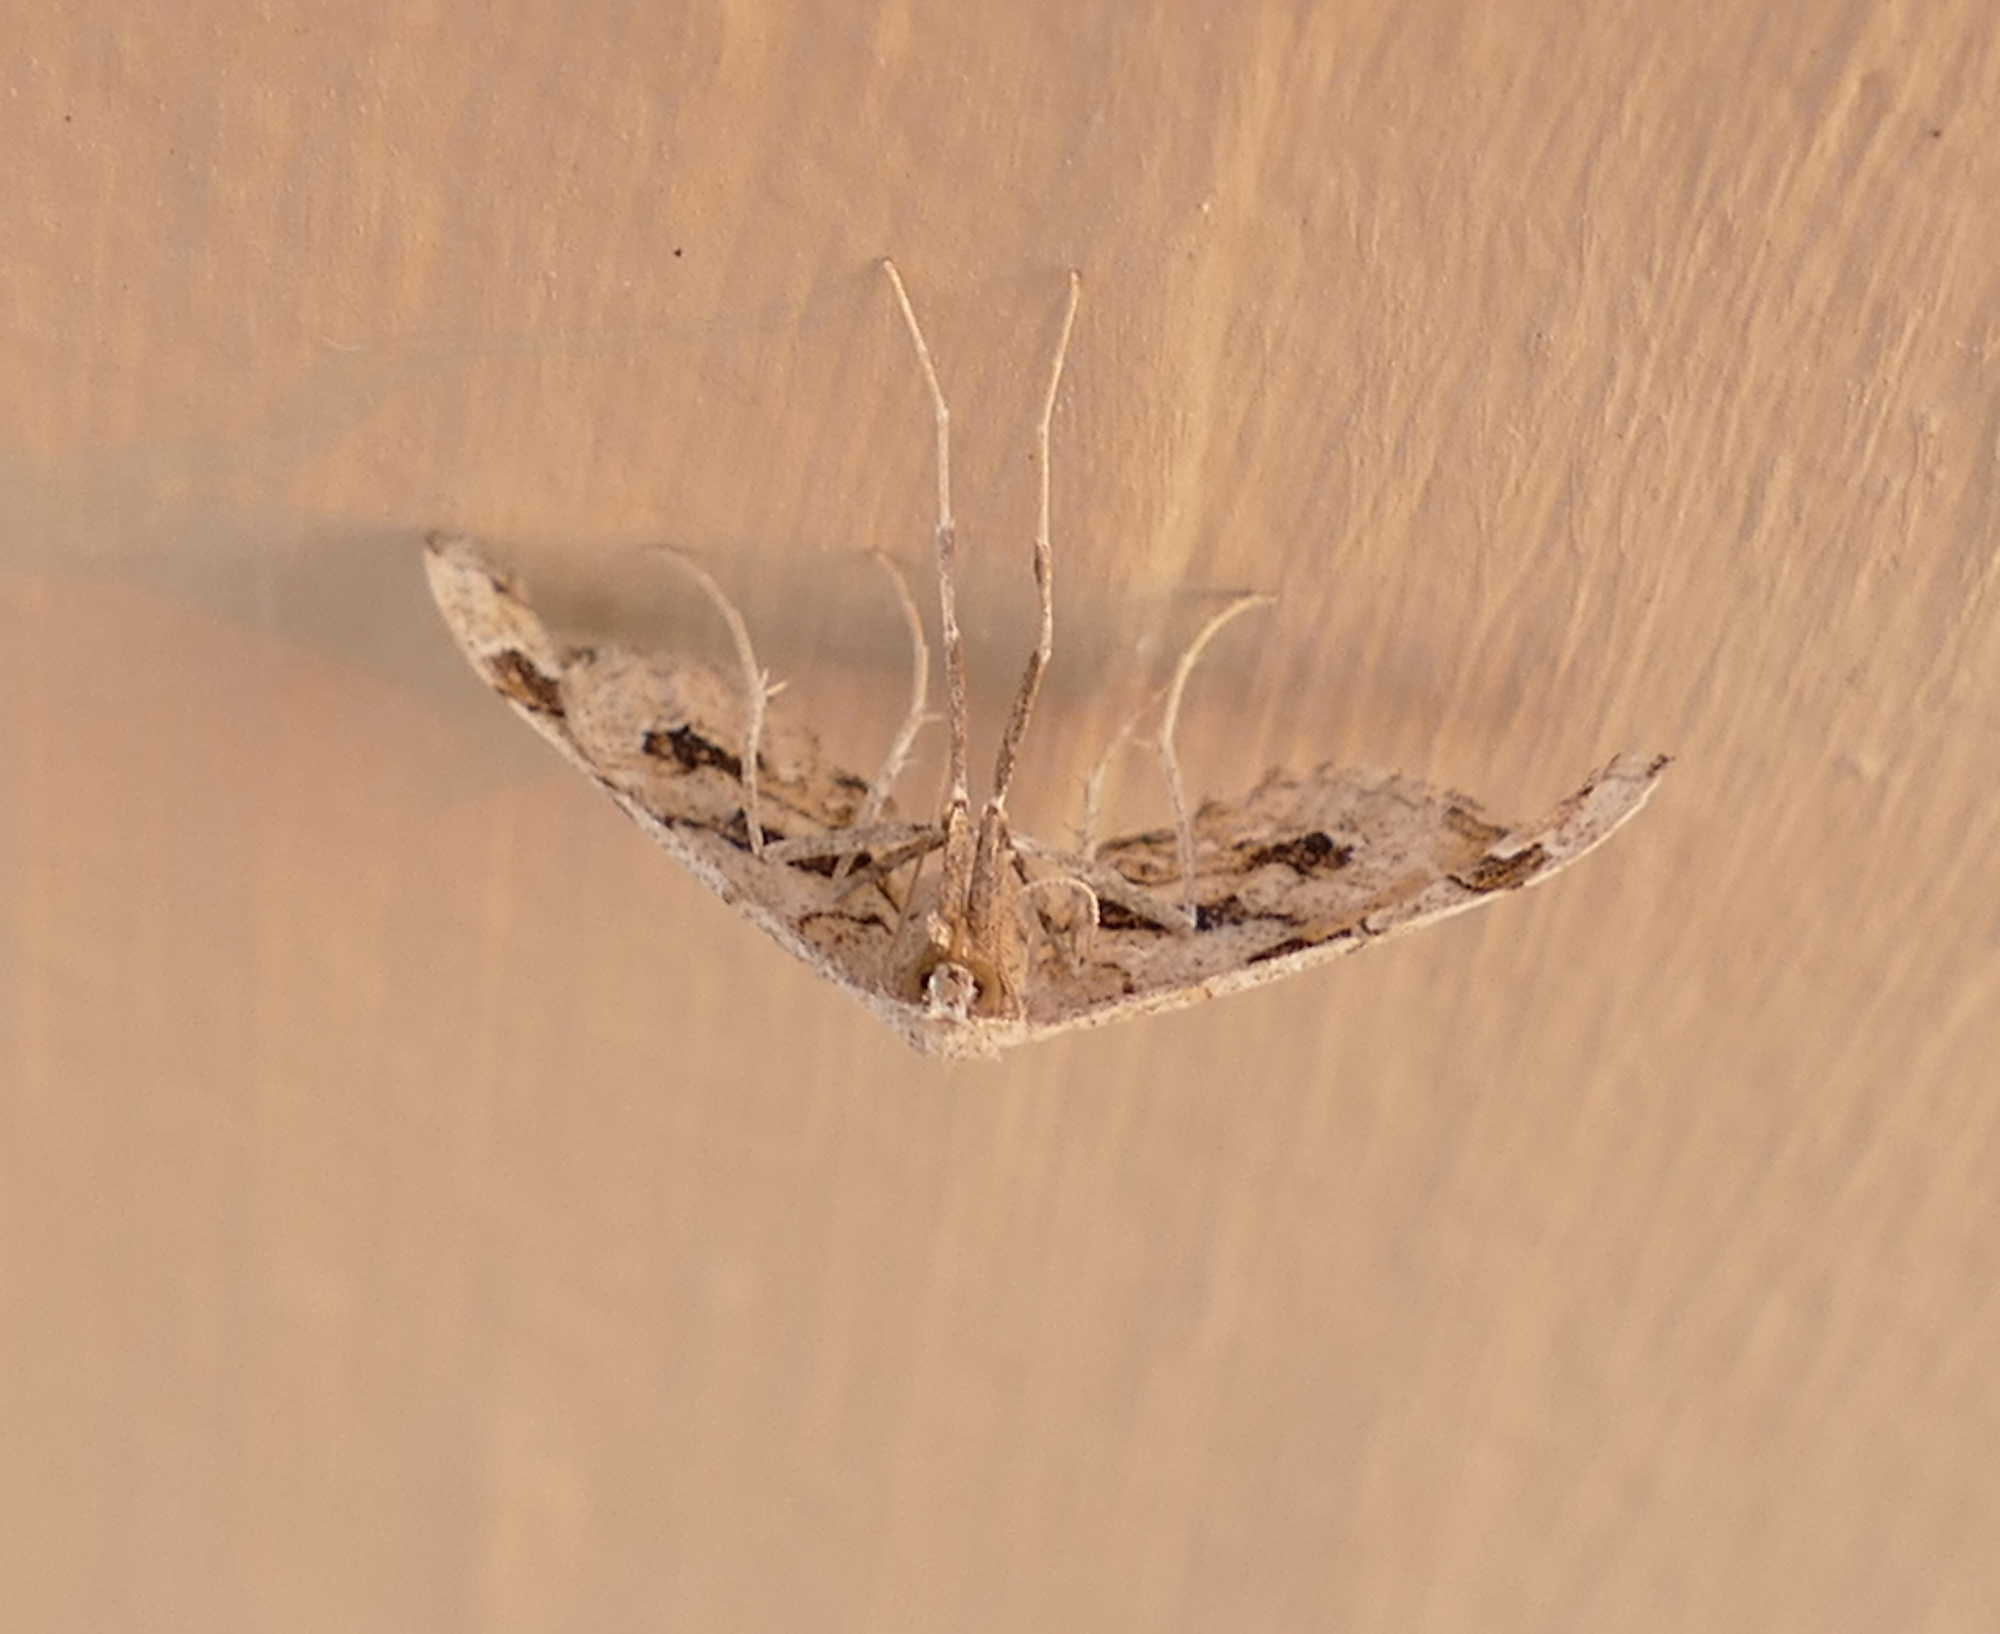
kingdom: Animalia
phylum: Arthropoda
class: Insecta
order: Lepidoptera
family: Geometridae
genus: Odontoptila
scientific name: Odontoptila obrimo
